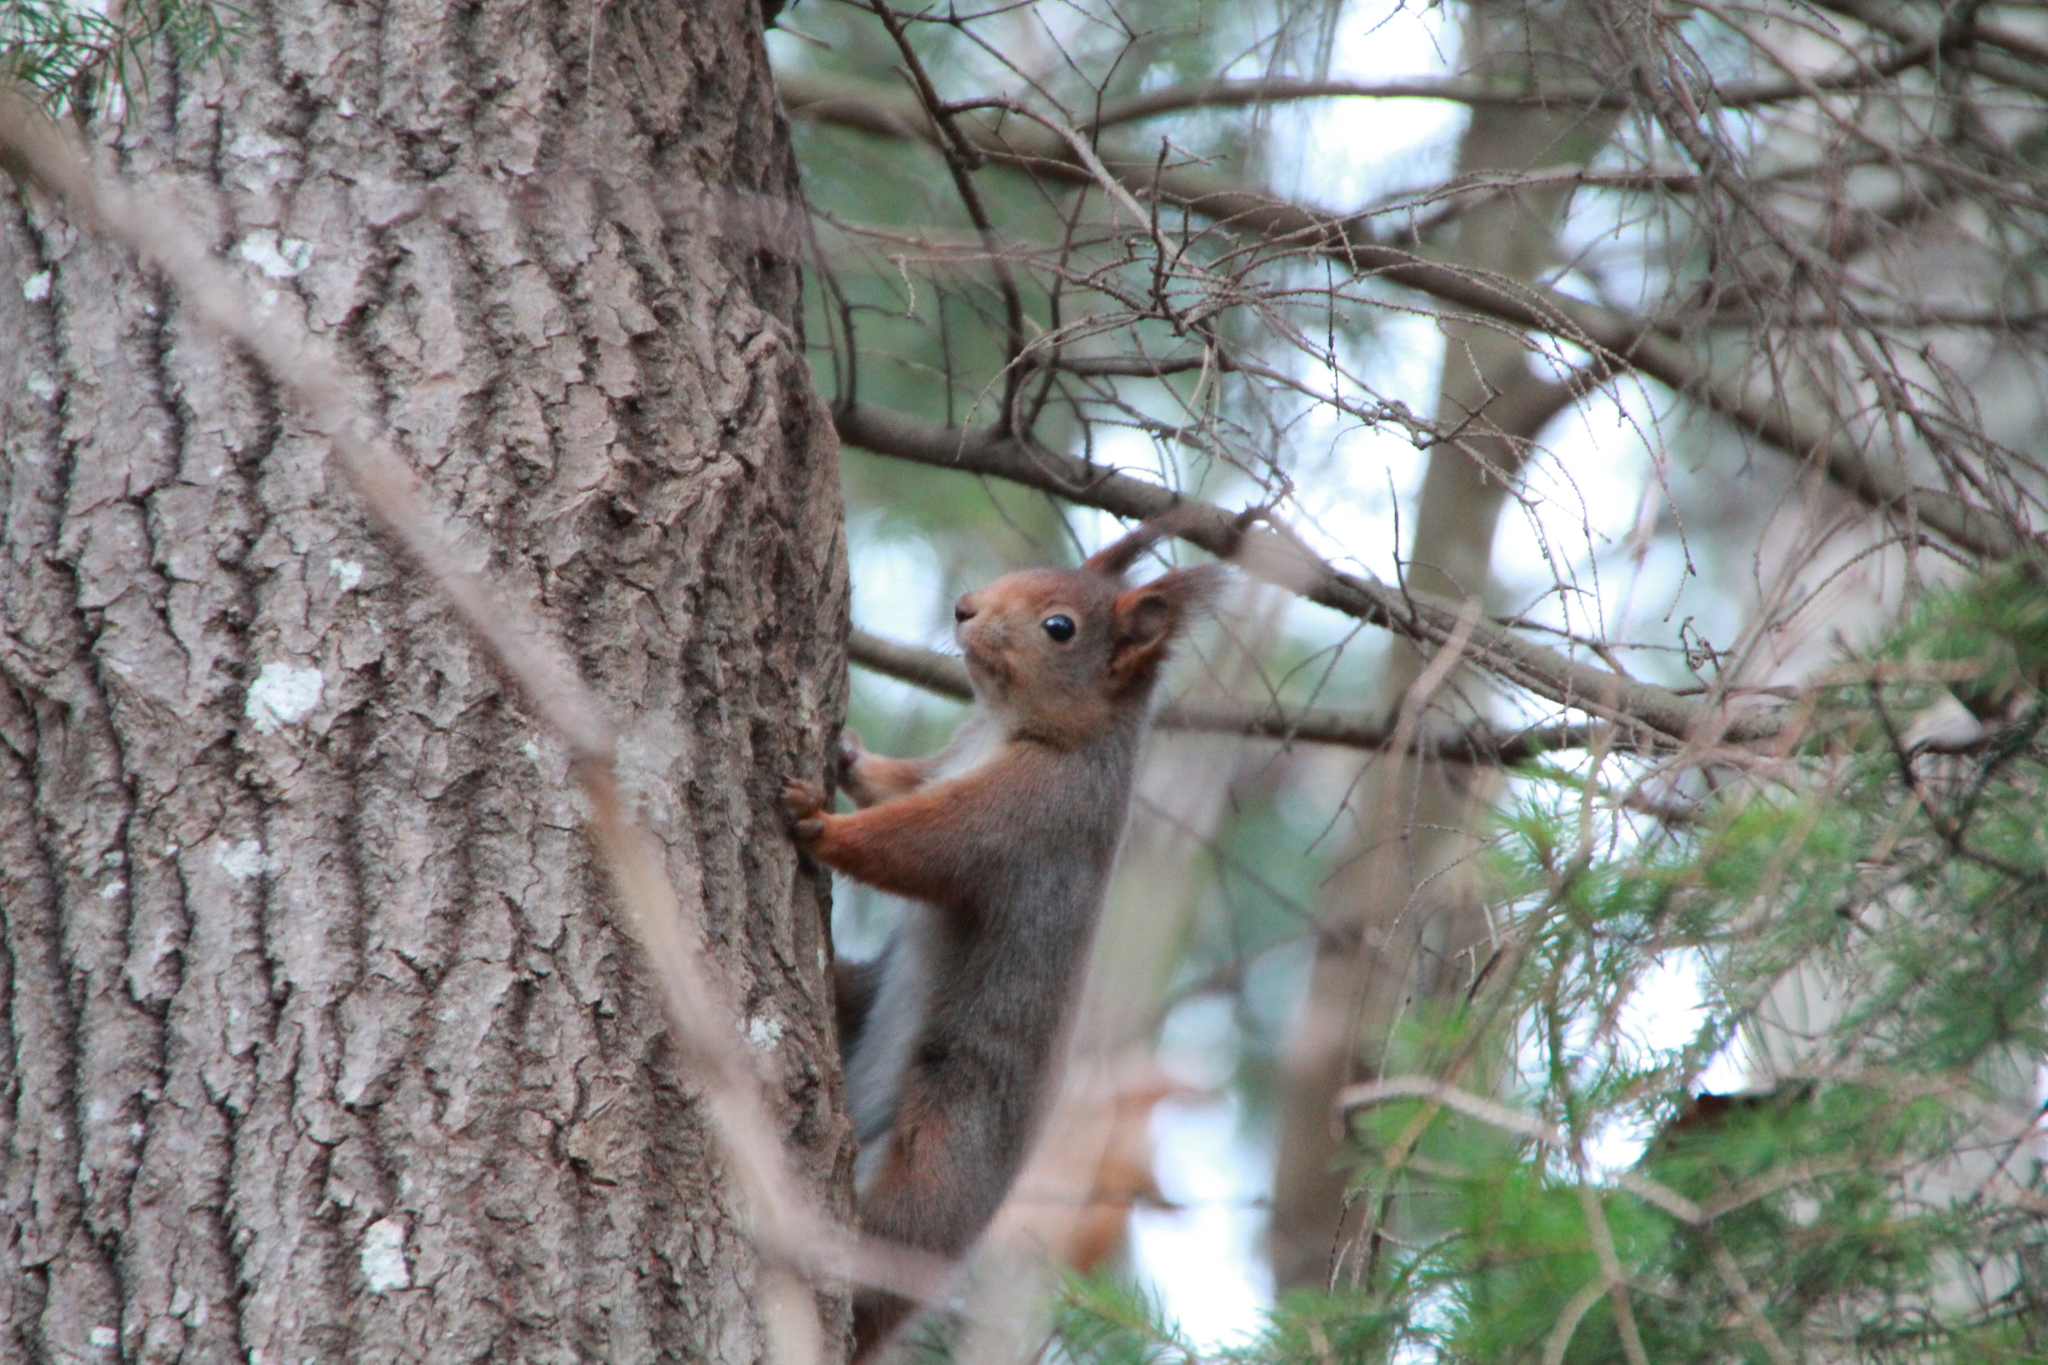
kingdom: Animalia
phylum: Chordata
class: Mammalia
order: Rodentia
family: Sciuridae
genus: Sciurus
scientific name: Sciurus vulgaris
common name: Eurasian red squirrel
